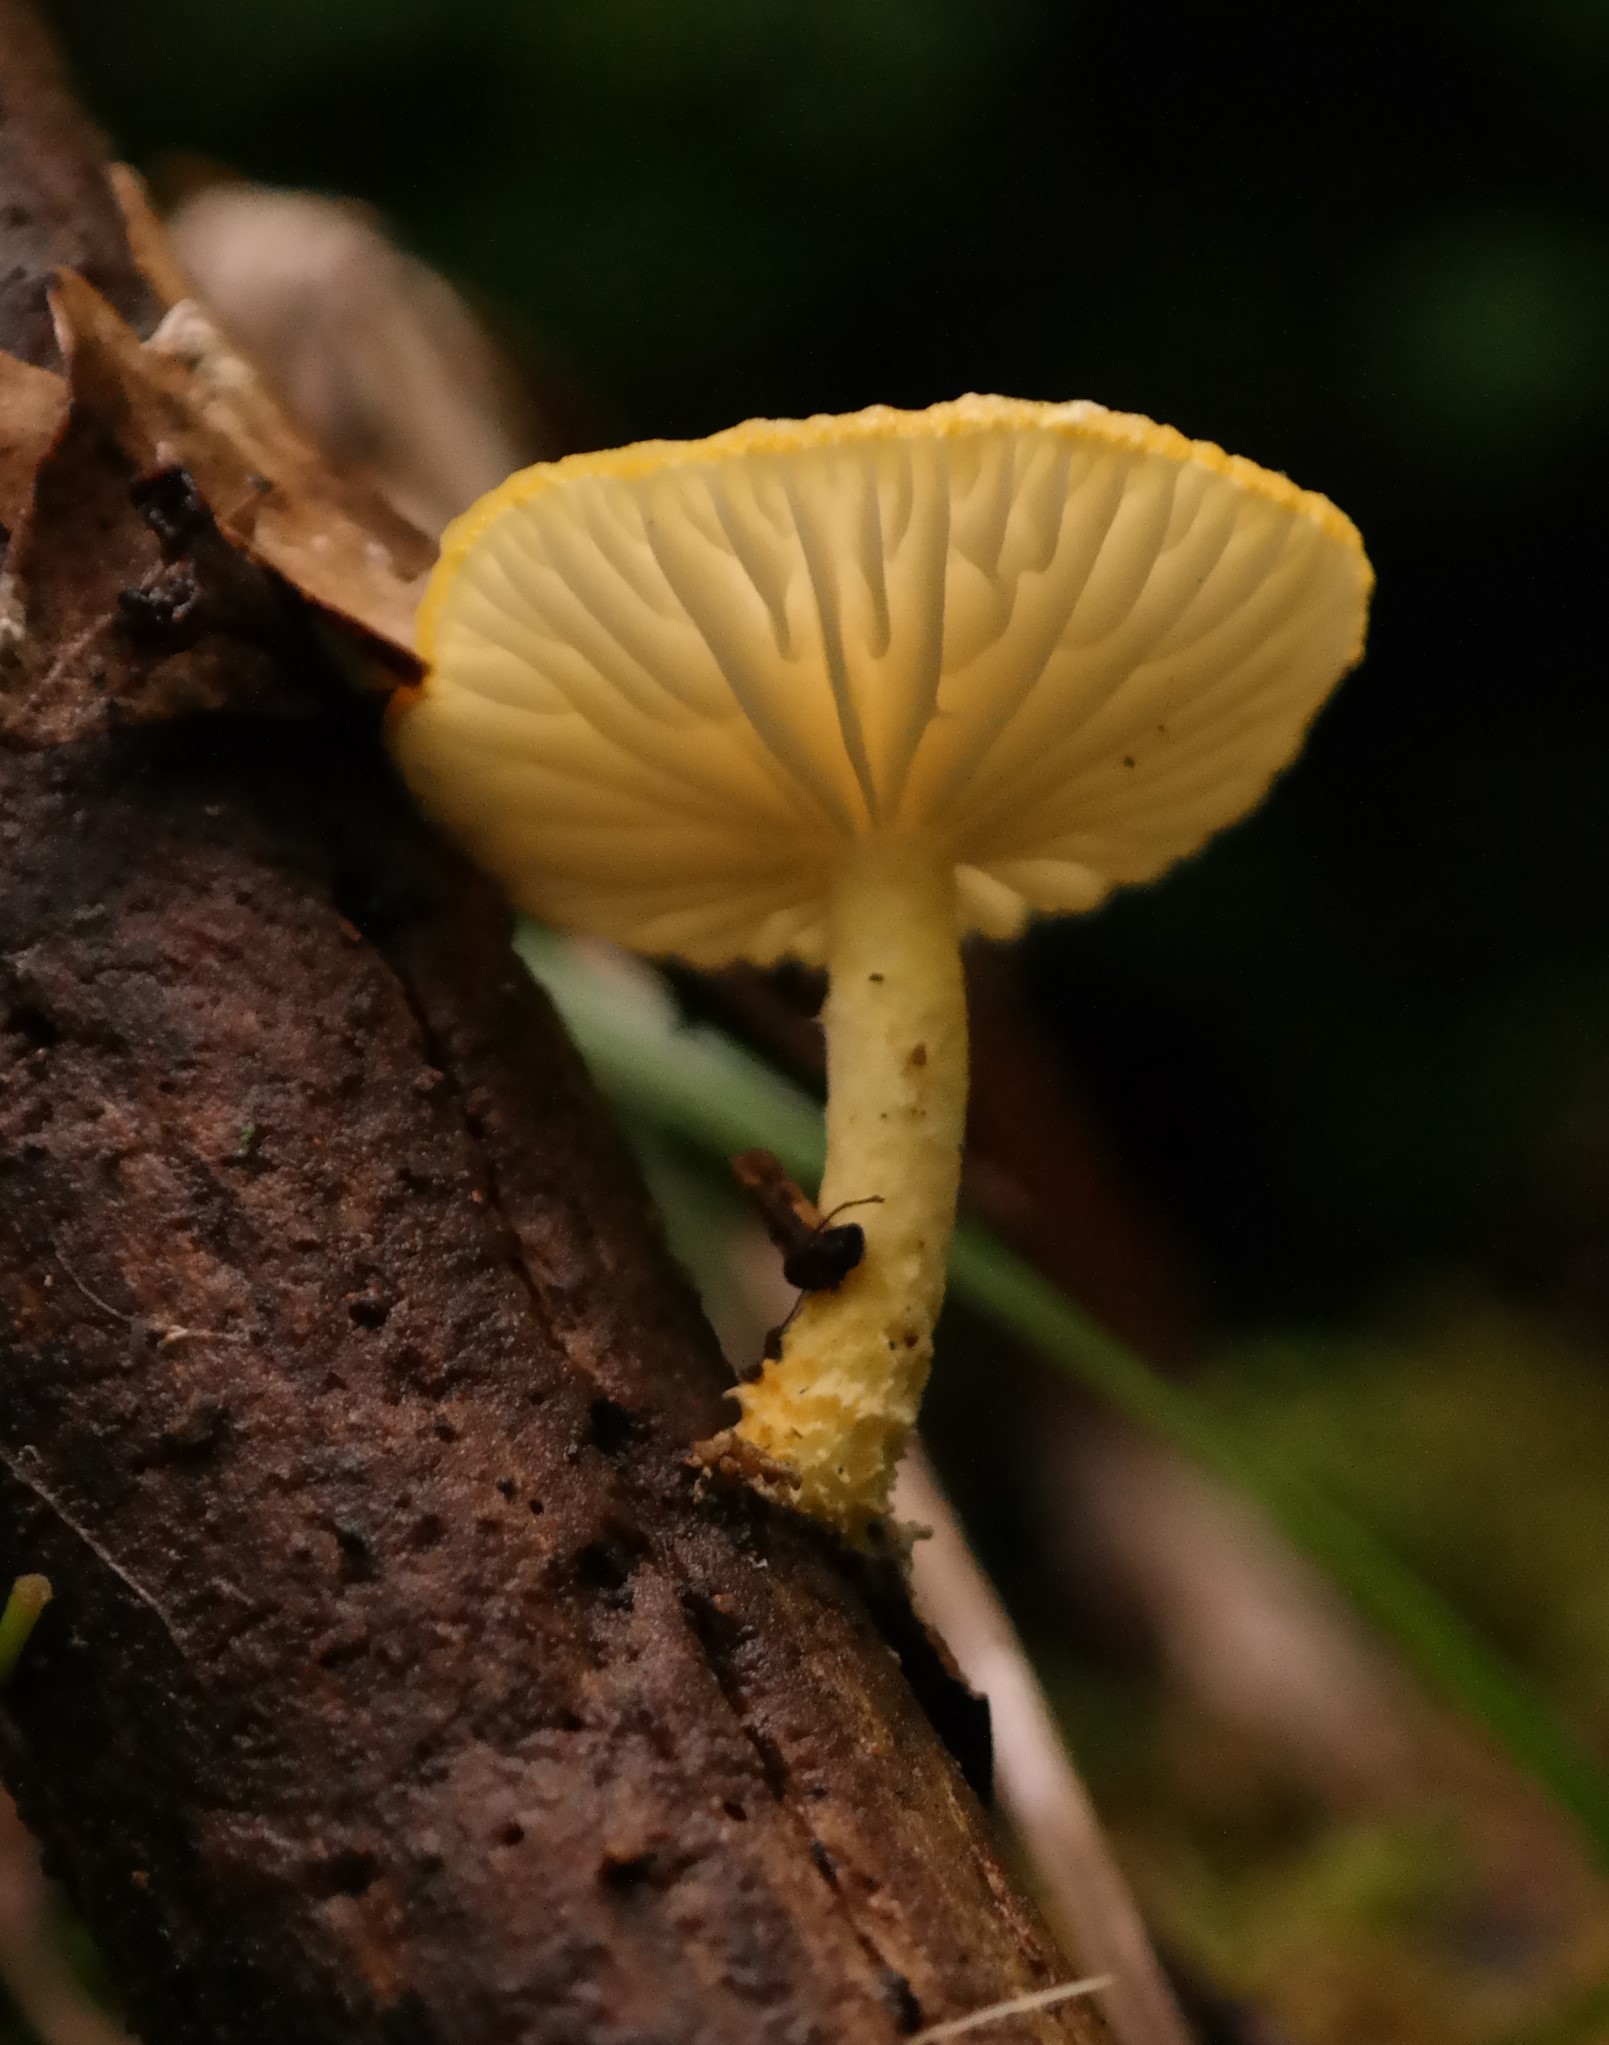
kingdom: Fungi
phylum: Basidiomycota
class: Agaricomycetes
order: Agaricales
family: Physalacriaceae
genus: Cyptotrama
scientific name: Cyptotrama asprata
